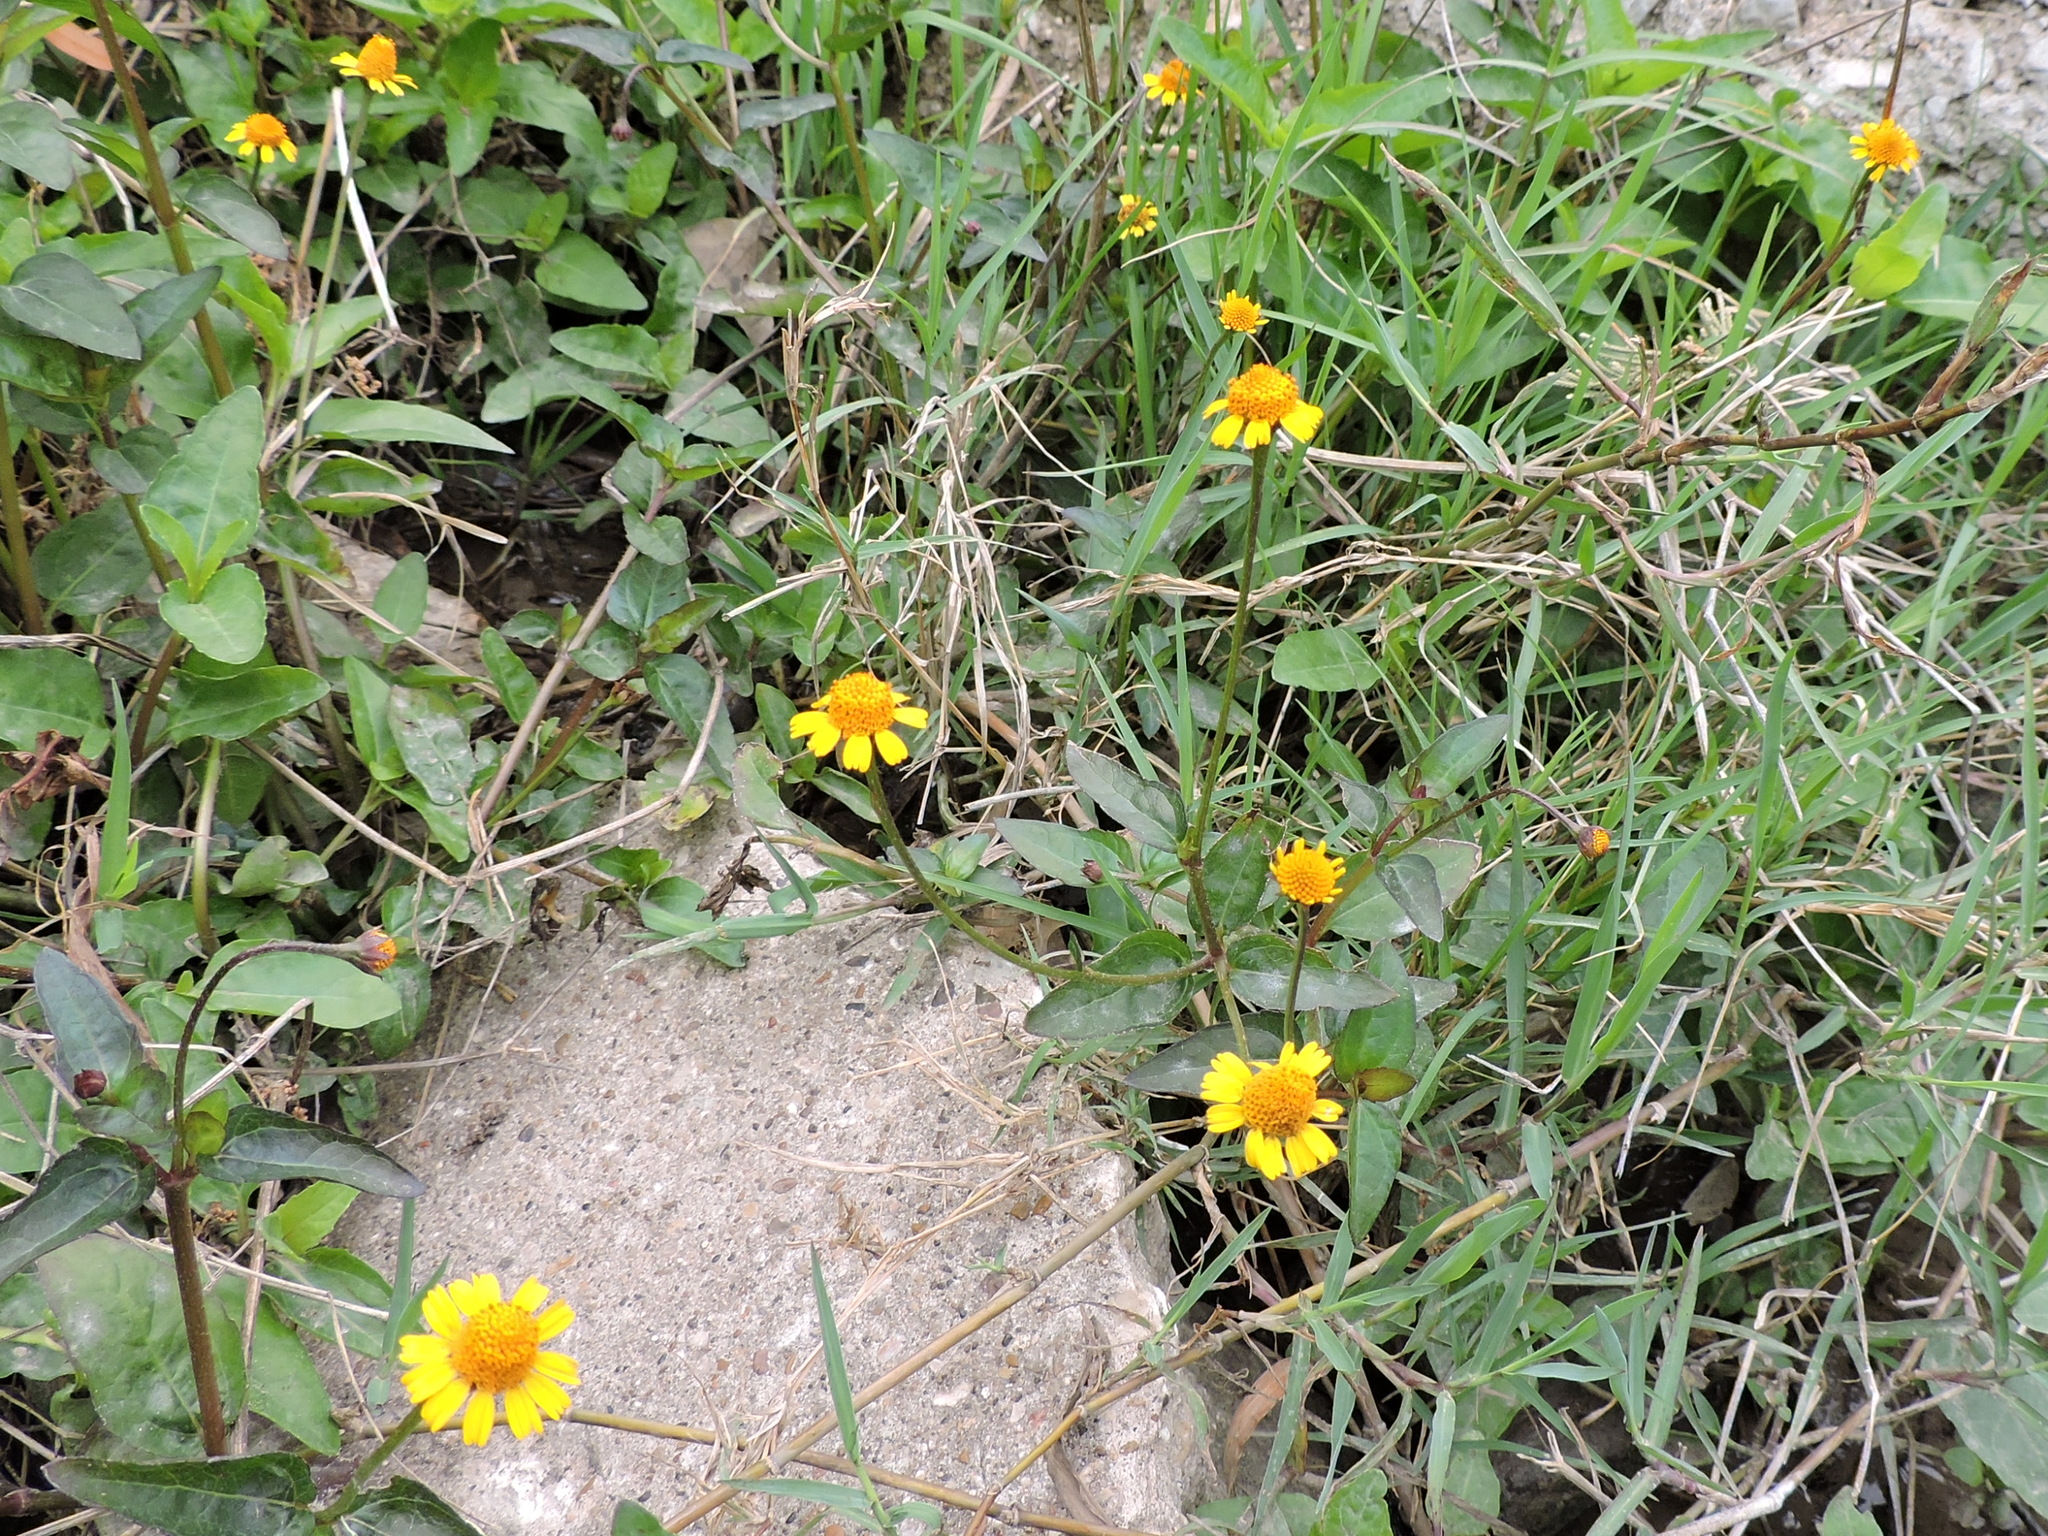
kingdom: Plantae
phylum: Tracheophyta
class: Magnoliopsida
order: Asterales
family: Asteraceae
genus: Acmella
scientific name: Acmella repens
